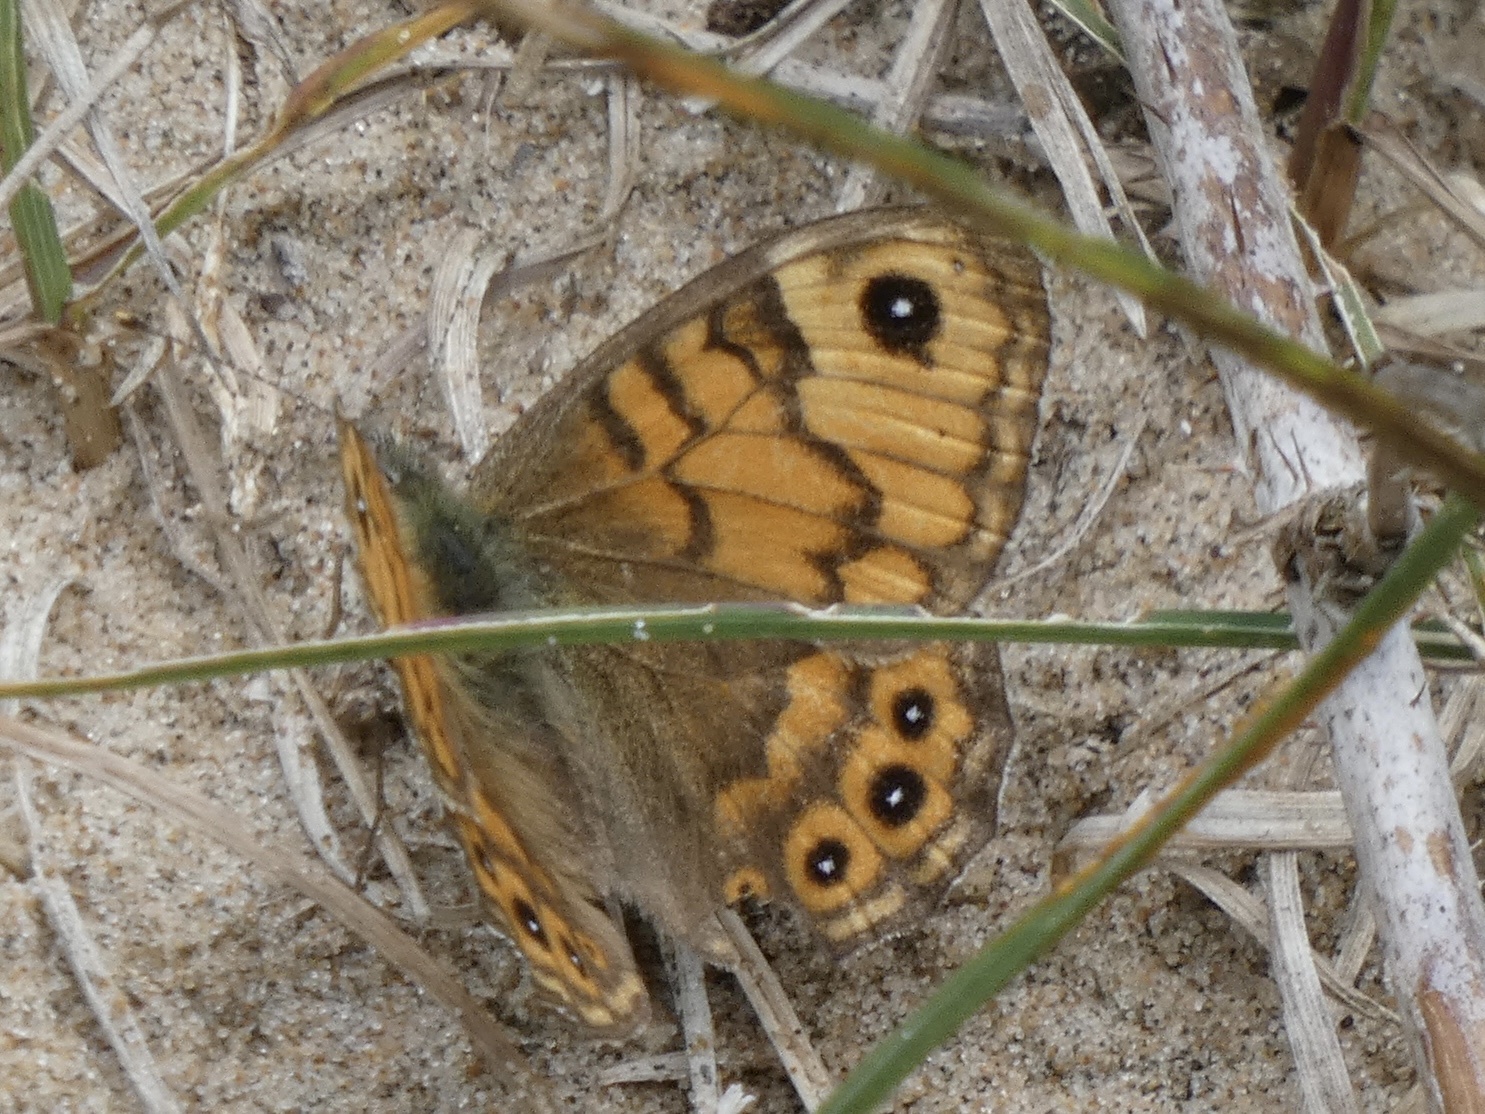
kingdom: Animalia
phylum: Arthropoda
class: Insecta
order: Lepidoptera
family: Nymphalidae
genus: Pararge
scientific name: Pararge Lasiommata megera
